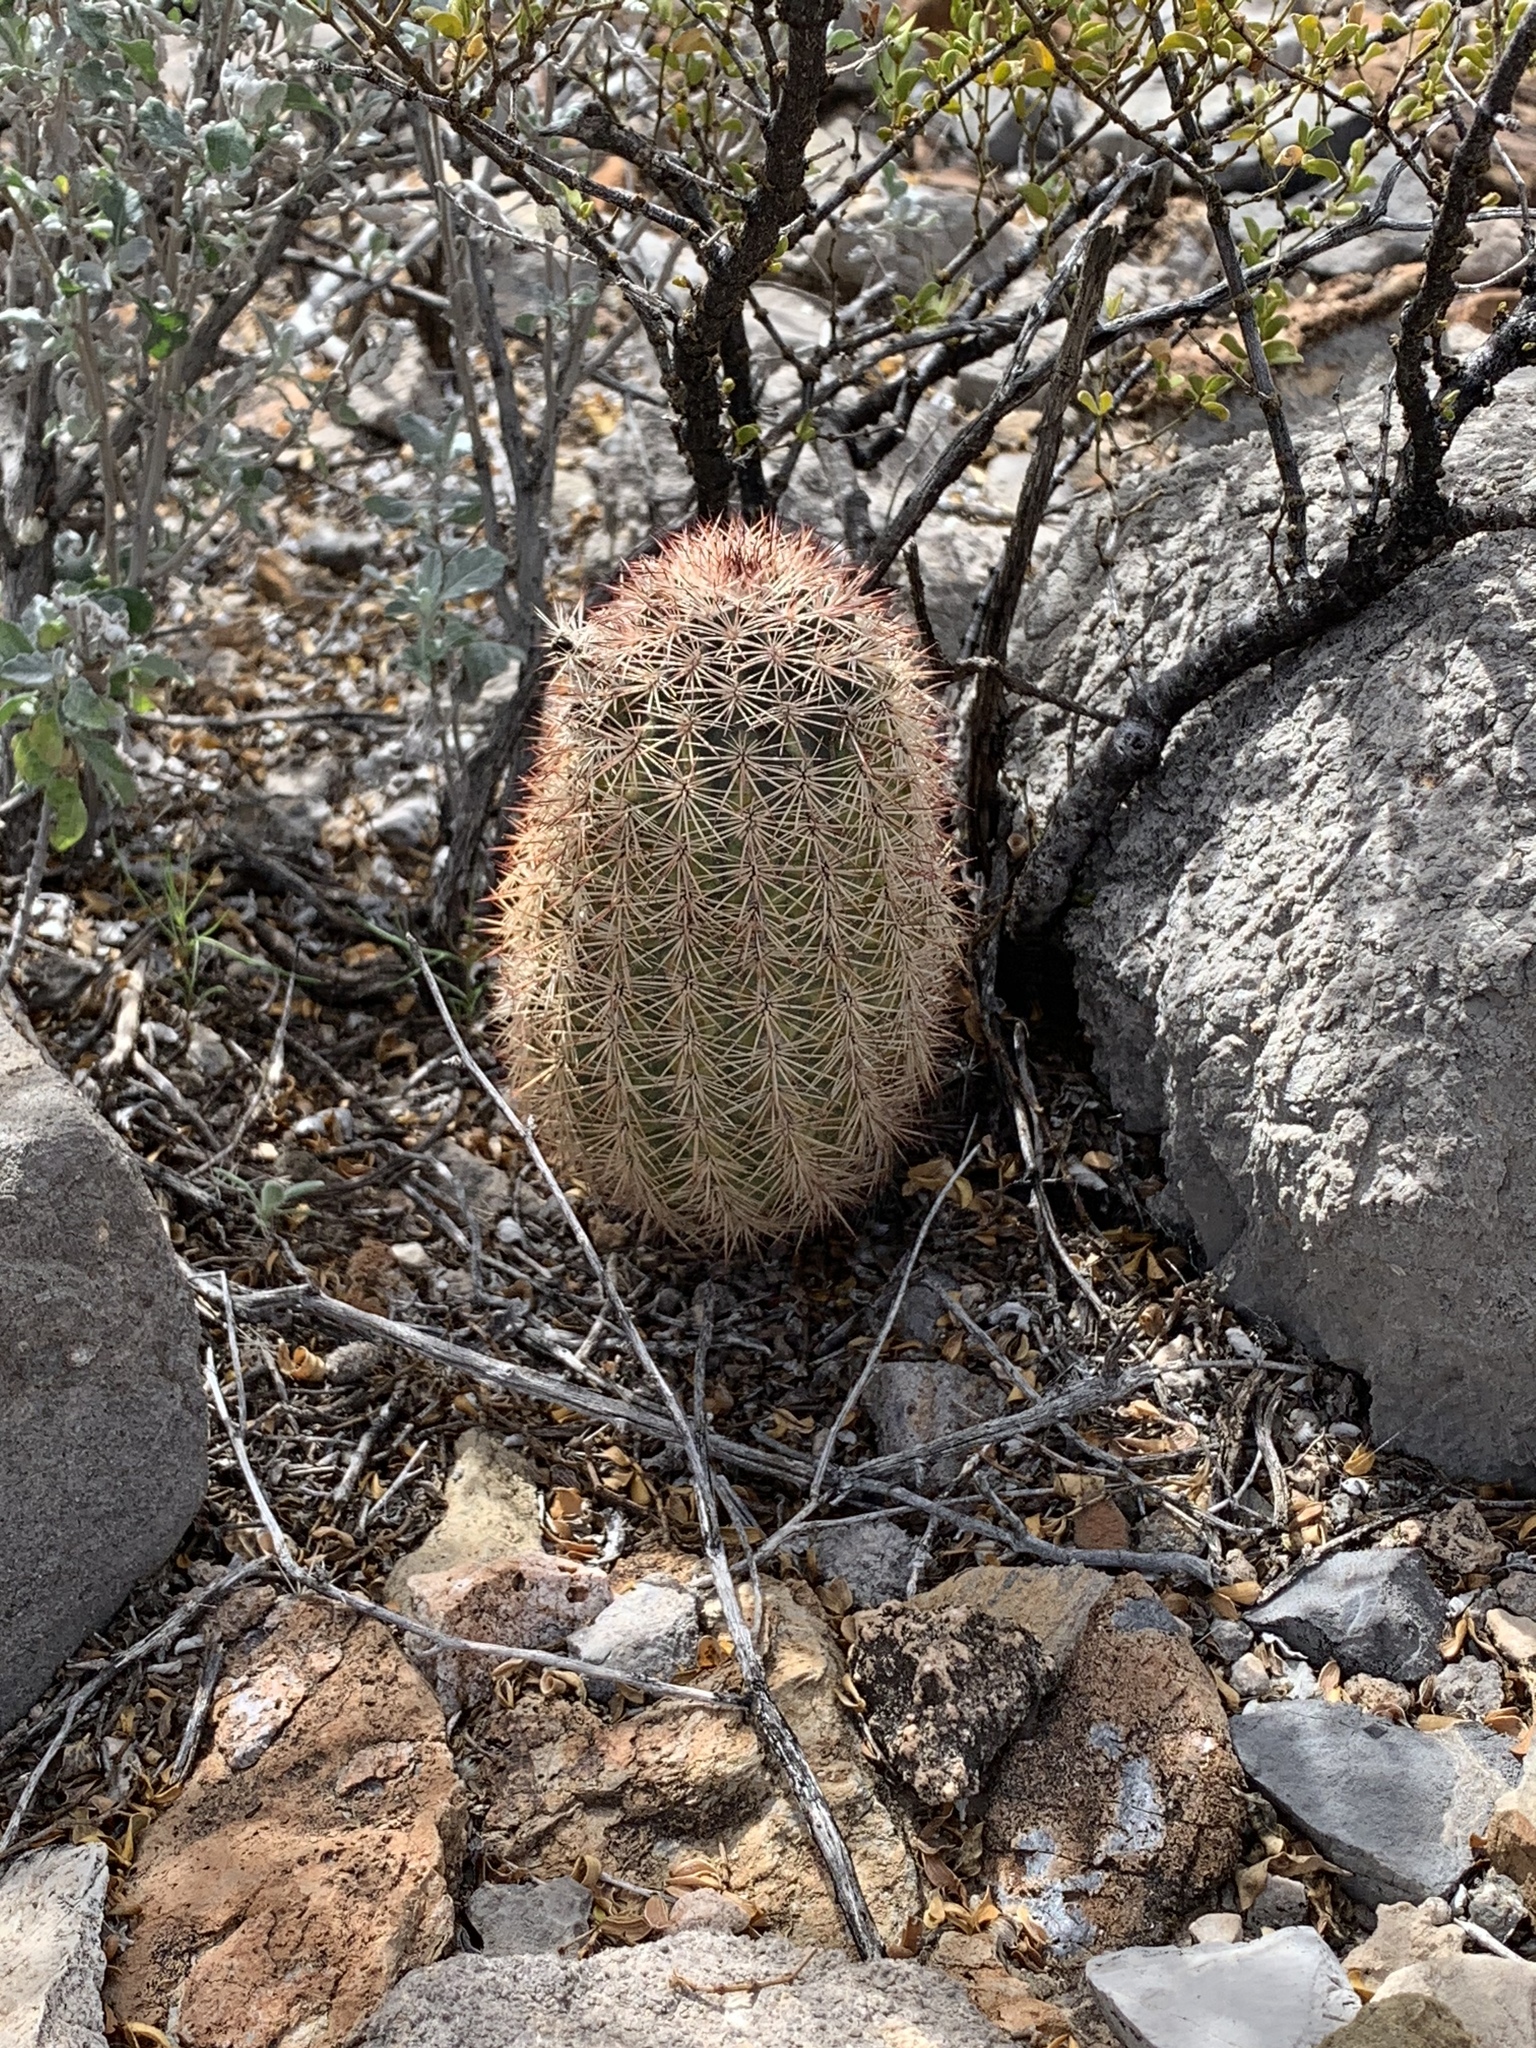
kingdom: Plantae
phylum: Tracheophyta
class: Magnoliopsida
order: Caryophyllales
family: Cactaceae
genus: Echinocereus
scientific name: Echinocereus dasyacanthus
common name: Spiny hedgehog cactus
